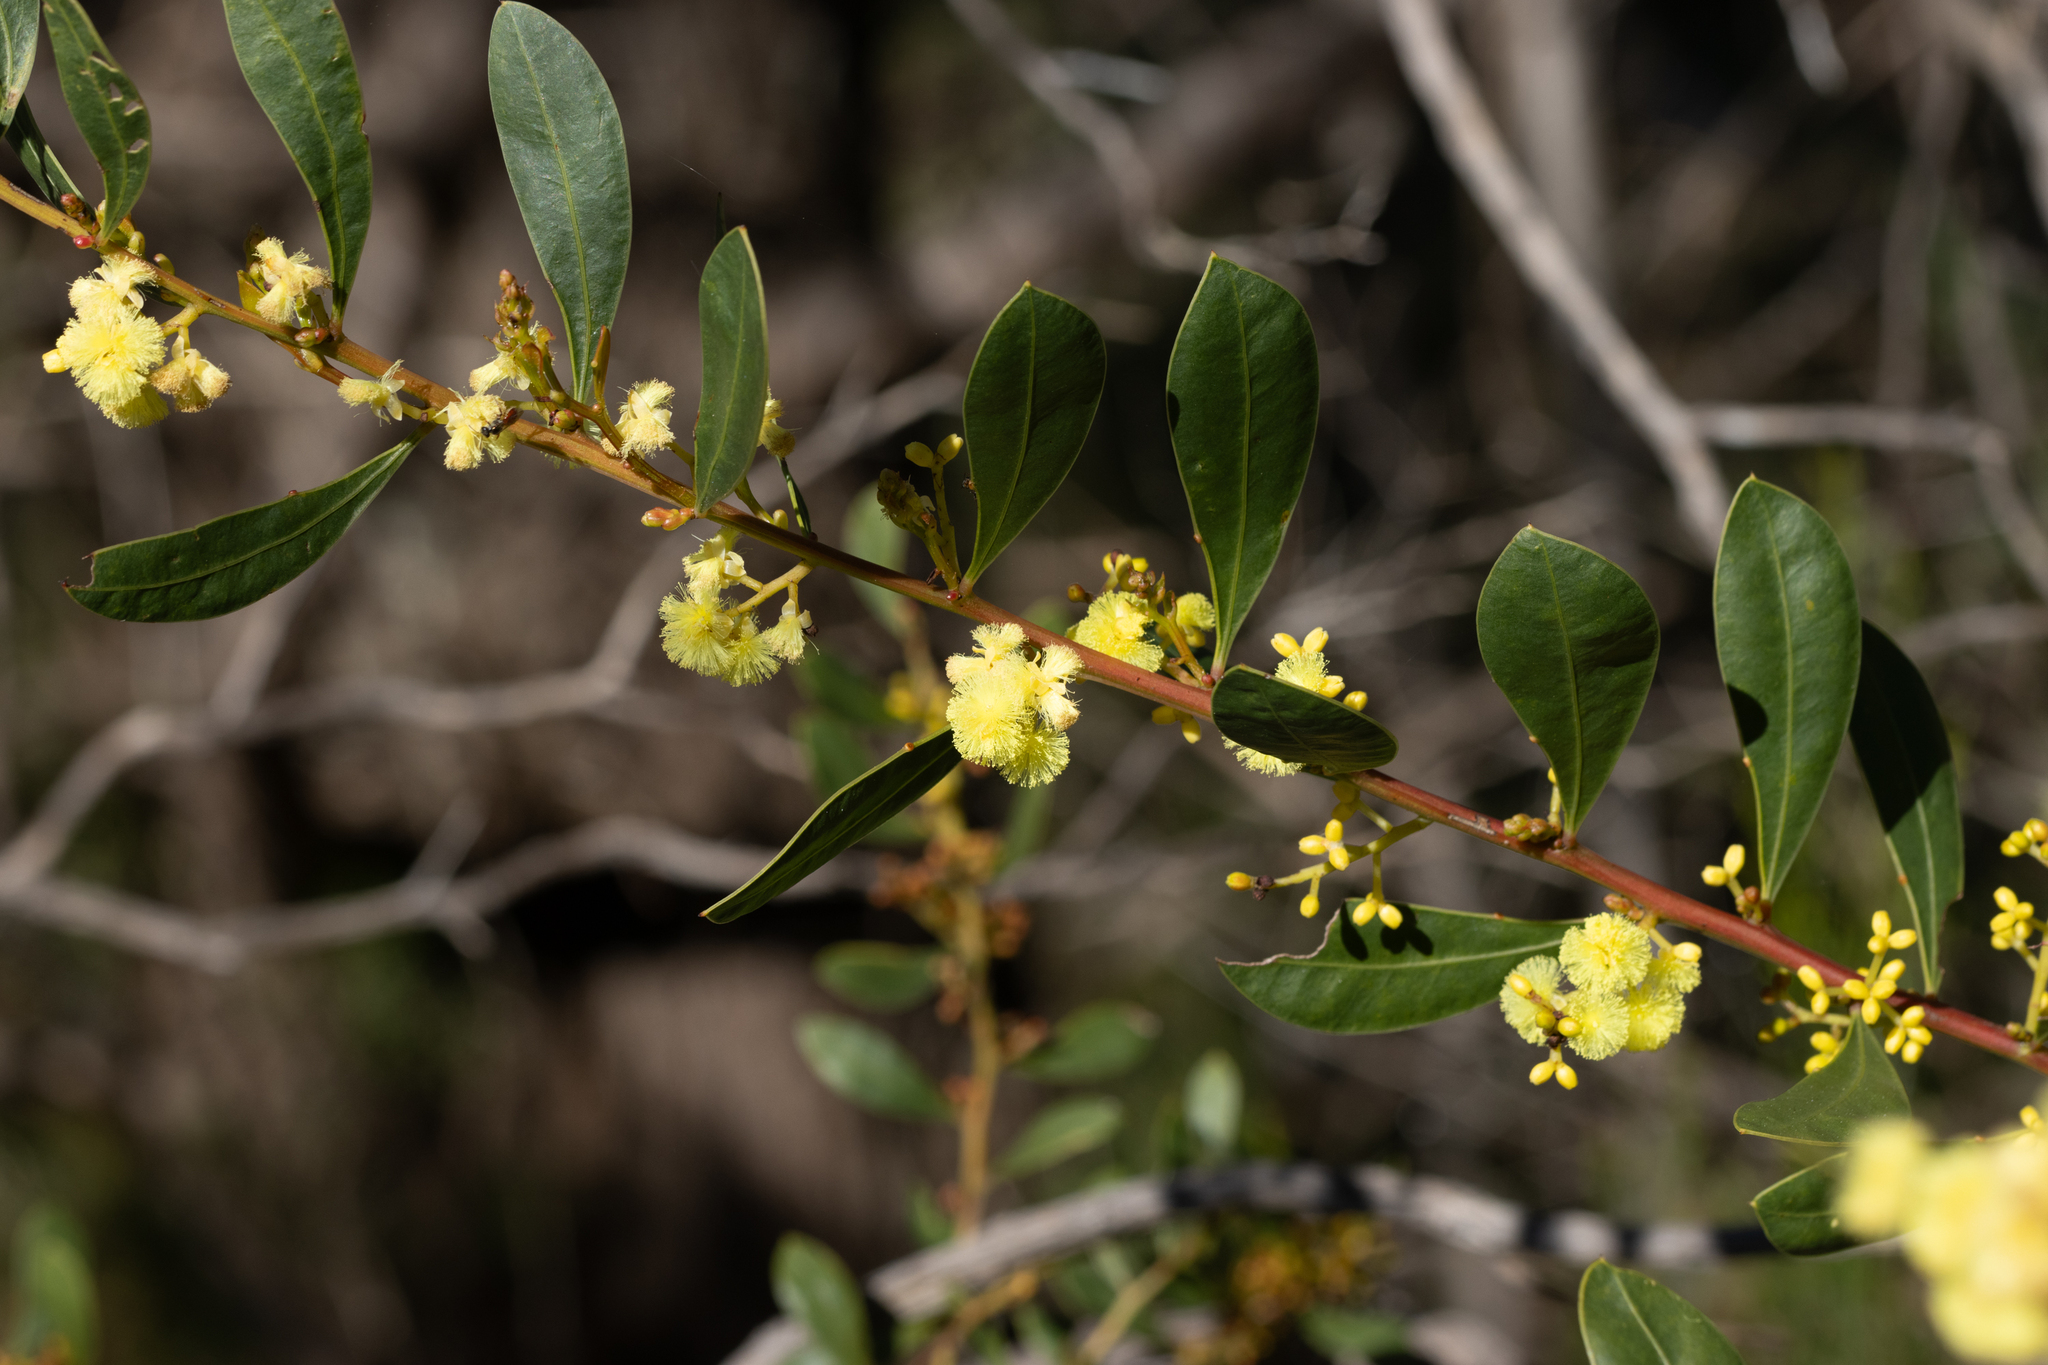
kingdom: Plantae
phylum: Tracheophyta
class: Magnoliopsida
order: Fabales
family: Fabaceae
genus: Acacia
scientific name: Acacia myrtifolia
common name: Myrtle wattle
